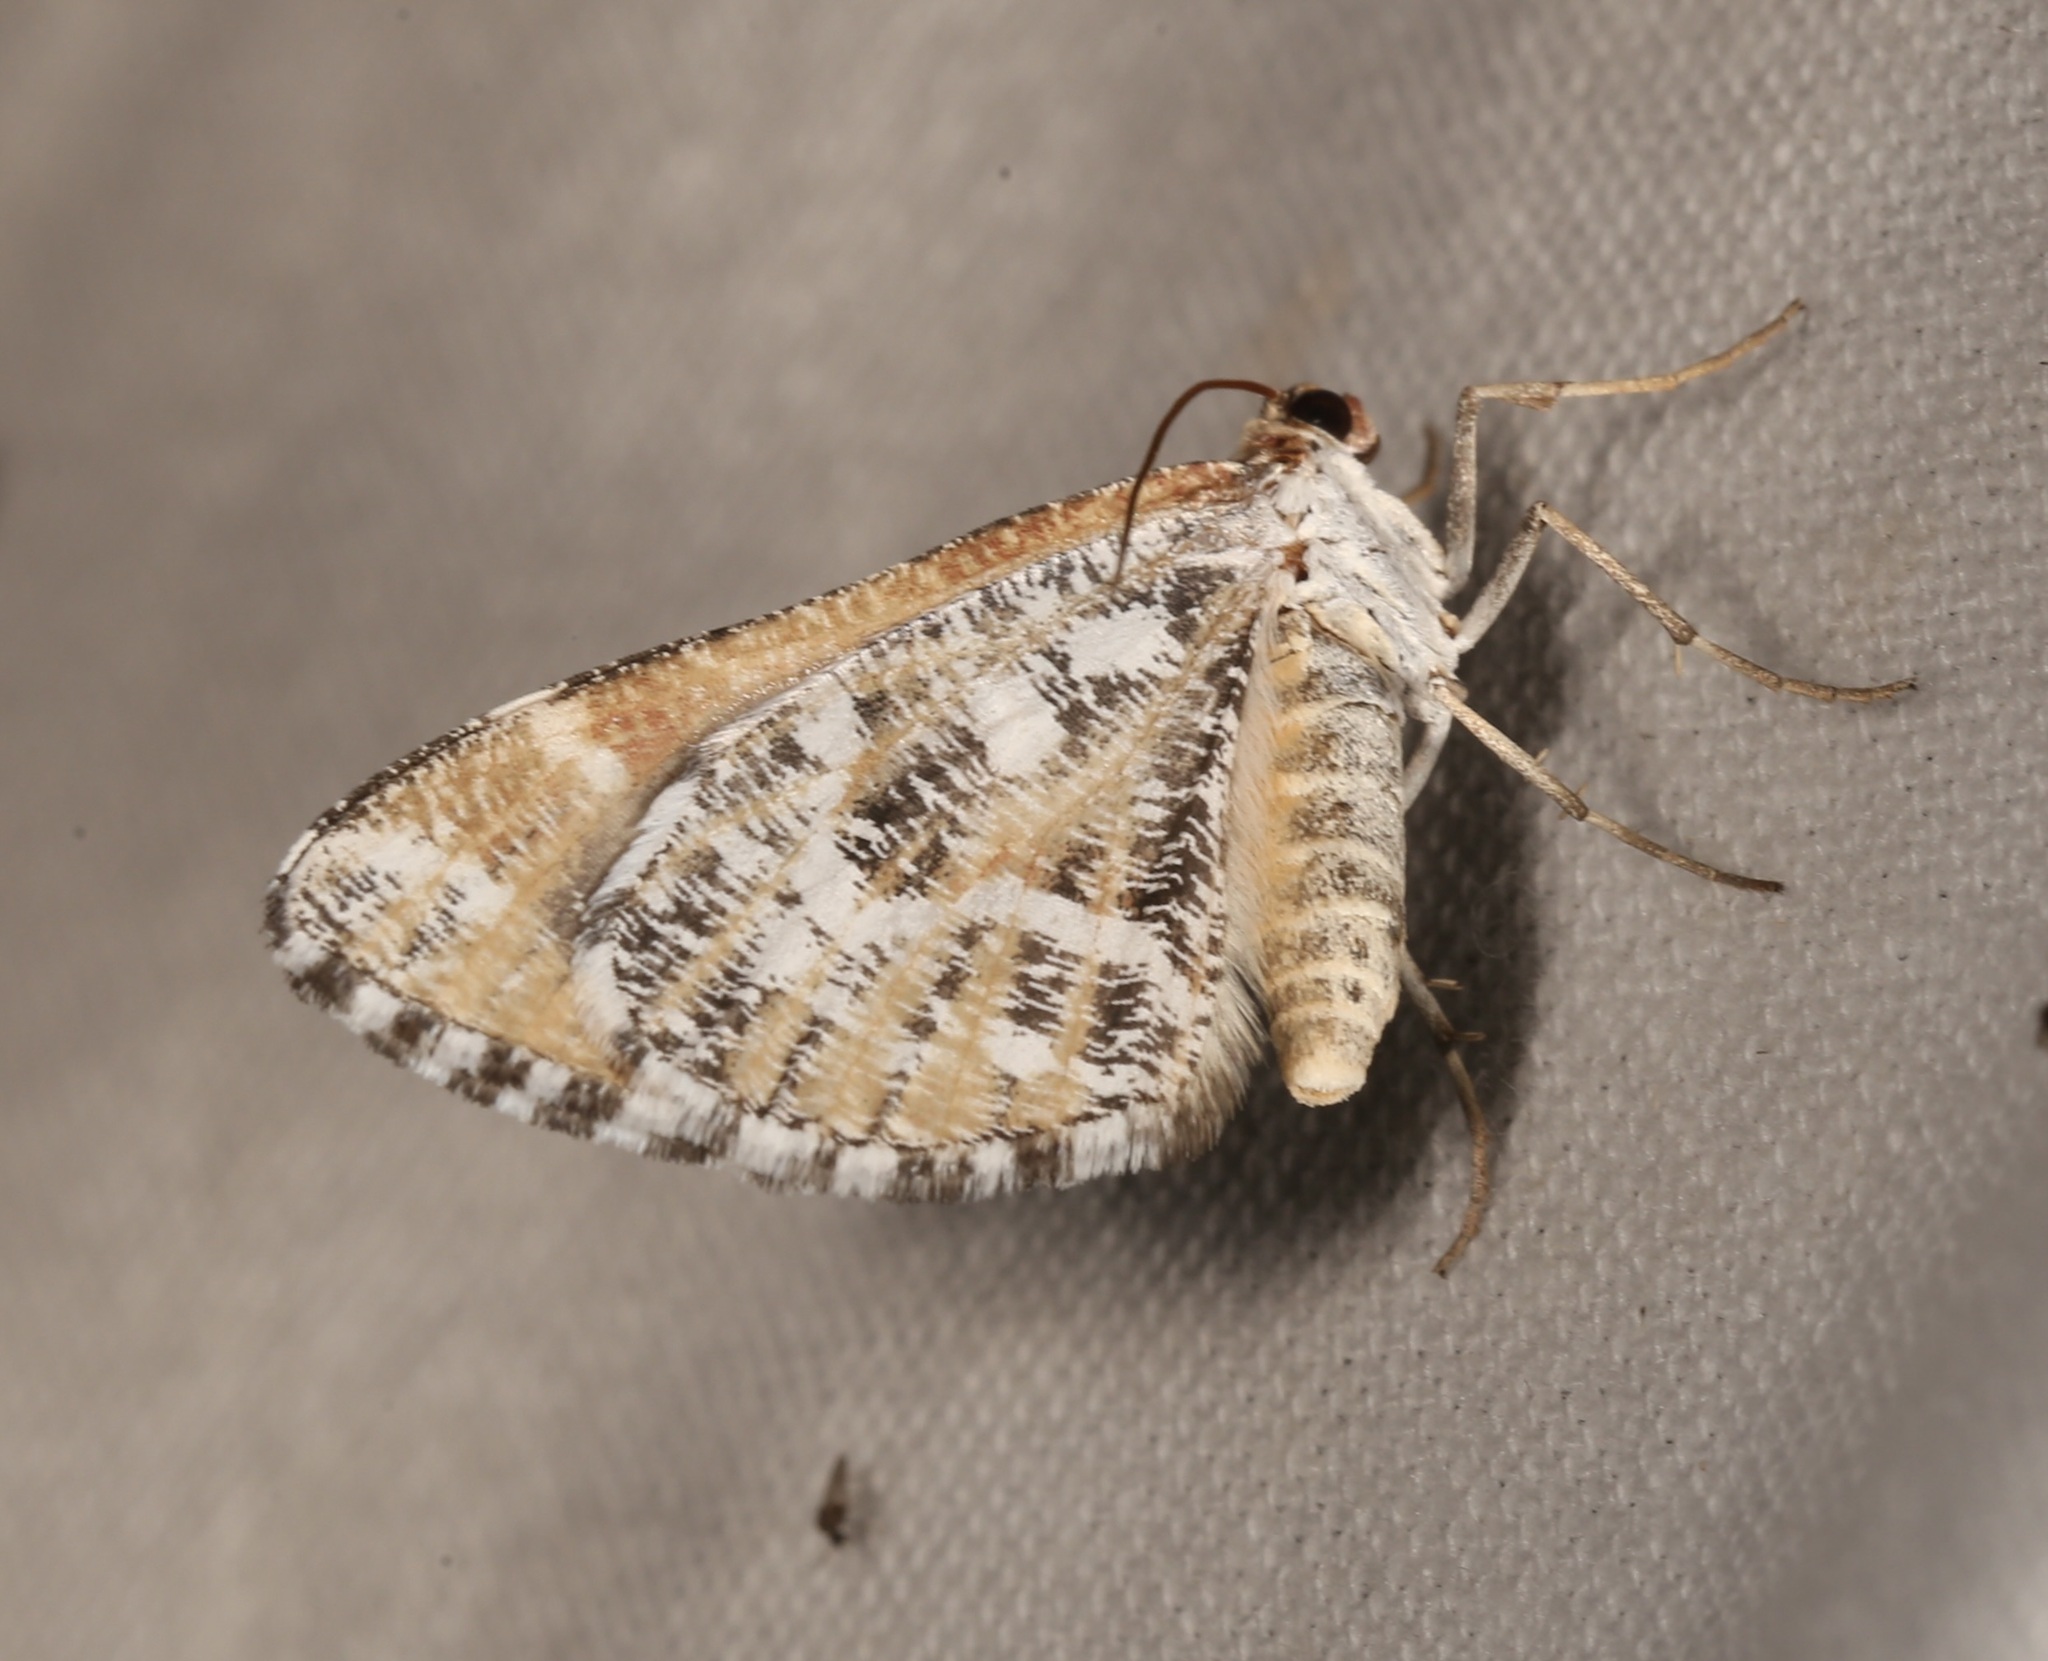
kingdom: Animalia
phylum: Arthropoda
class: Insecta
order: Lepidoptera
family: Geometridae
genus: Stamnodes
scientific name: Stamnodes marmorata
